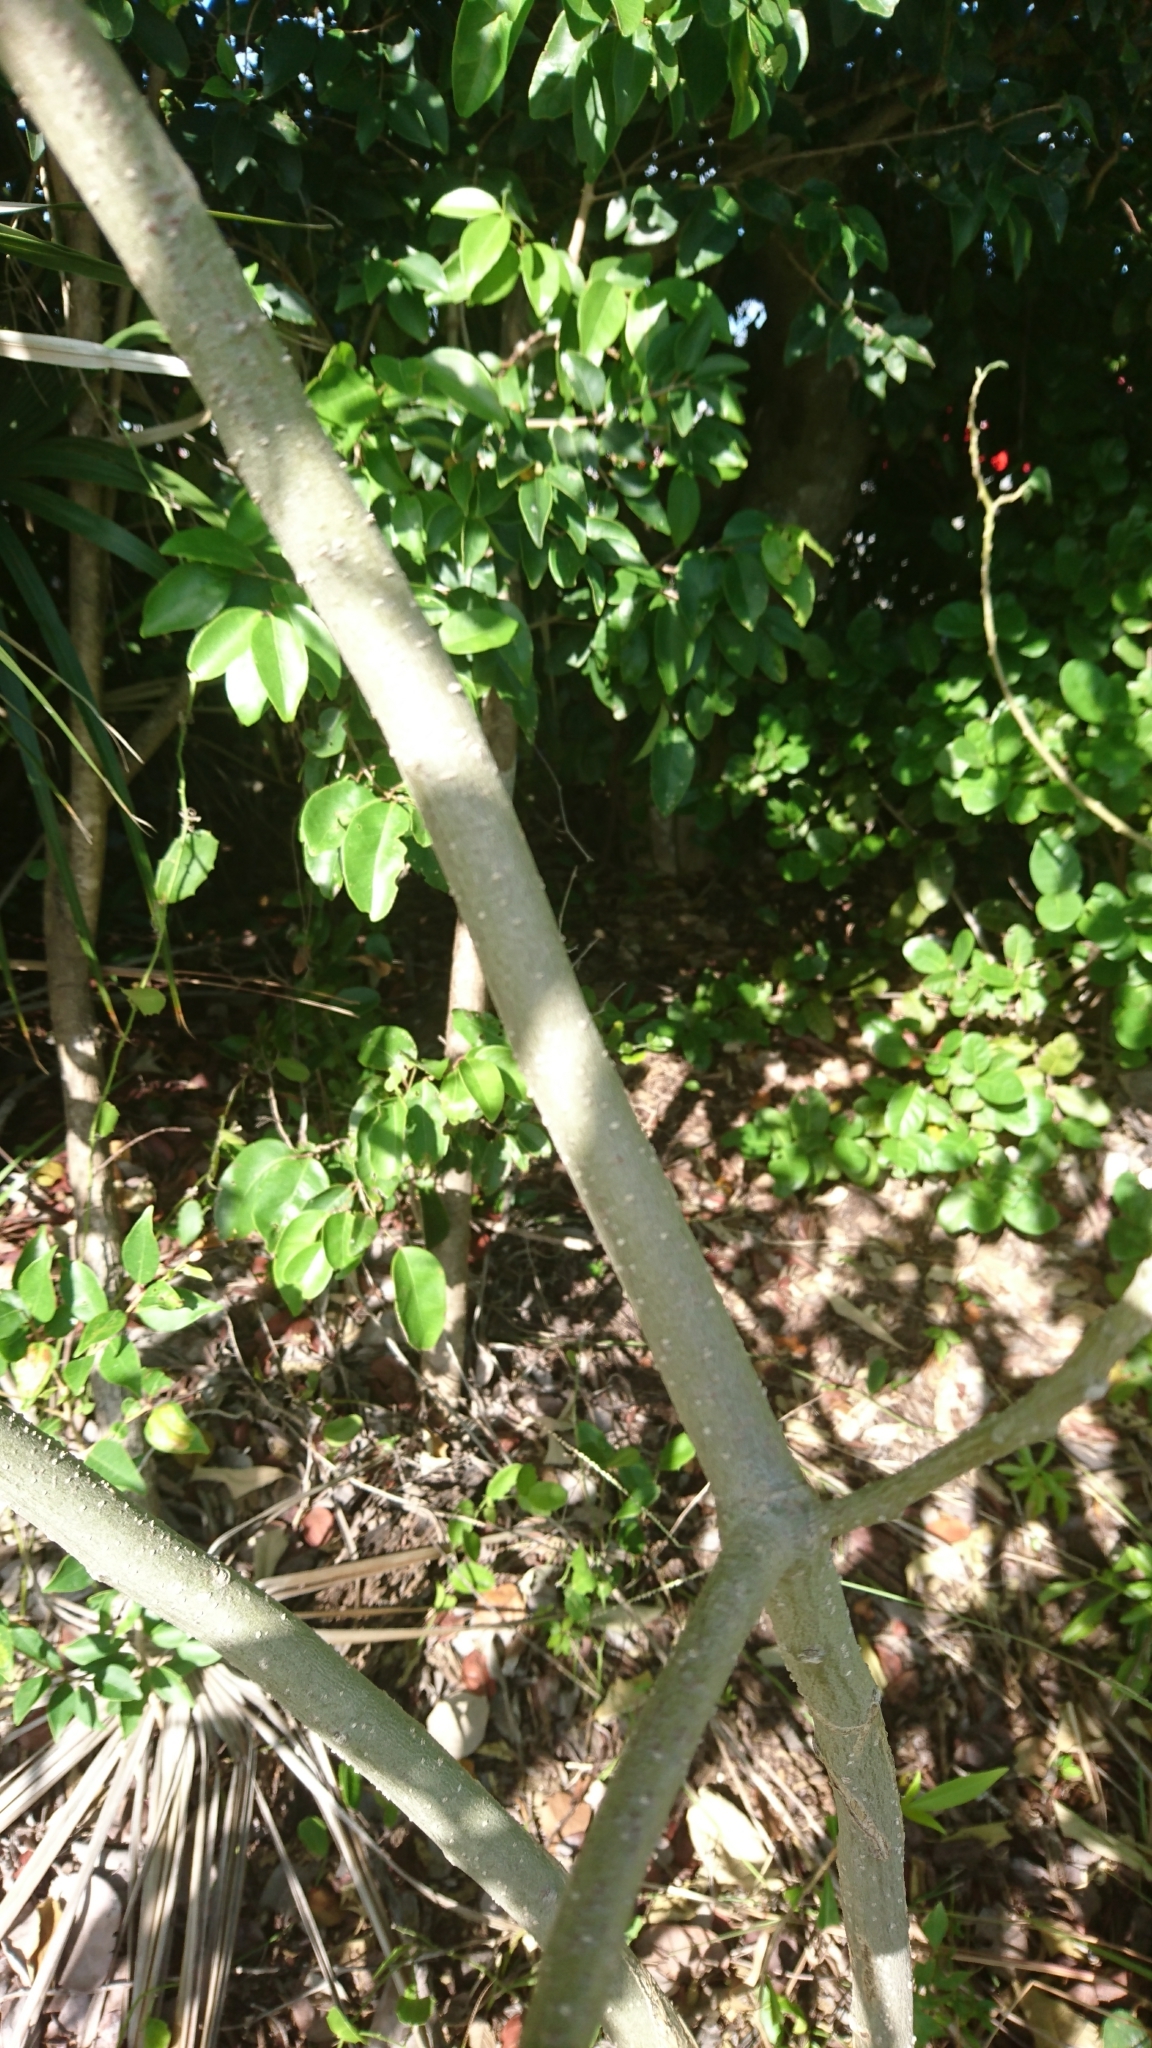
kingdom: Plantae
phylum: Tracheophyta
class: Magnoliopsida
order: Solanales
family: Solanaceae
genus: Solanum
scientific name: Solanum erianthum
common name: Tobacco-tree
